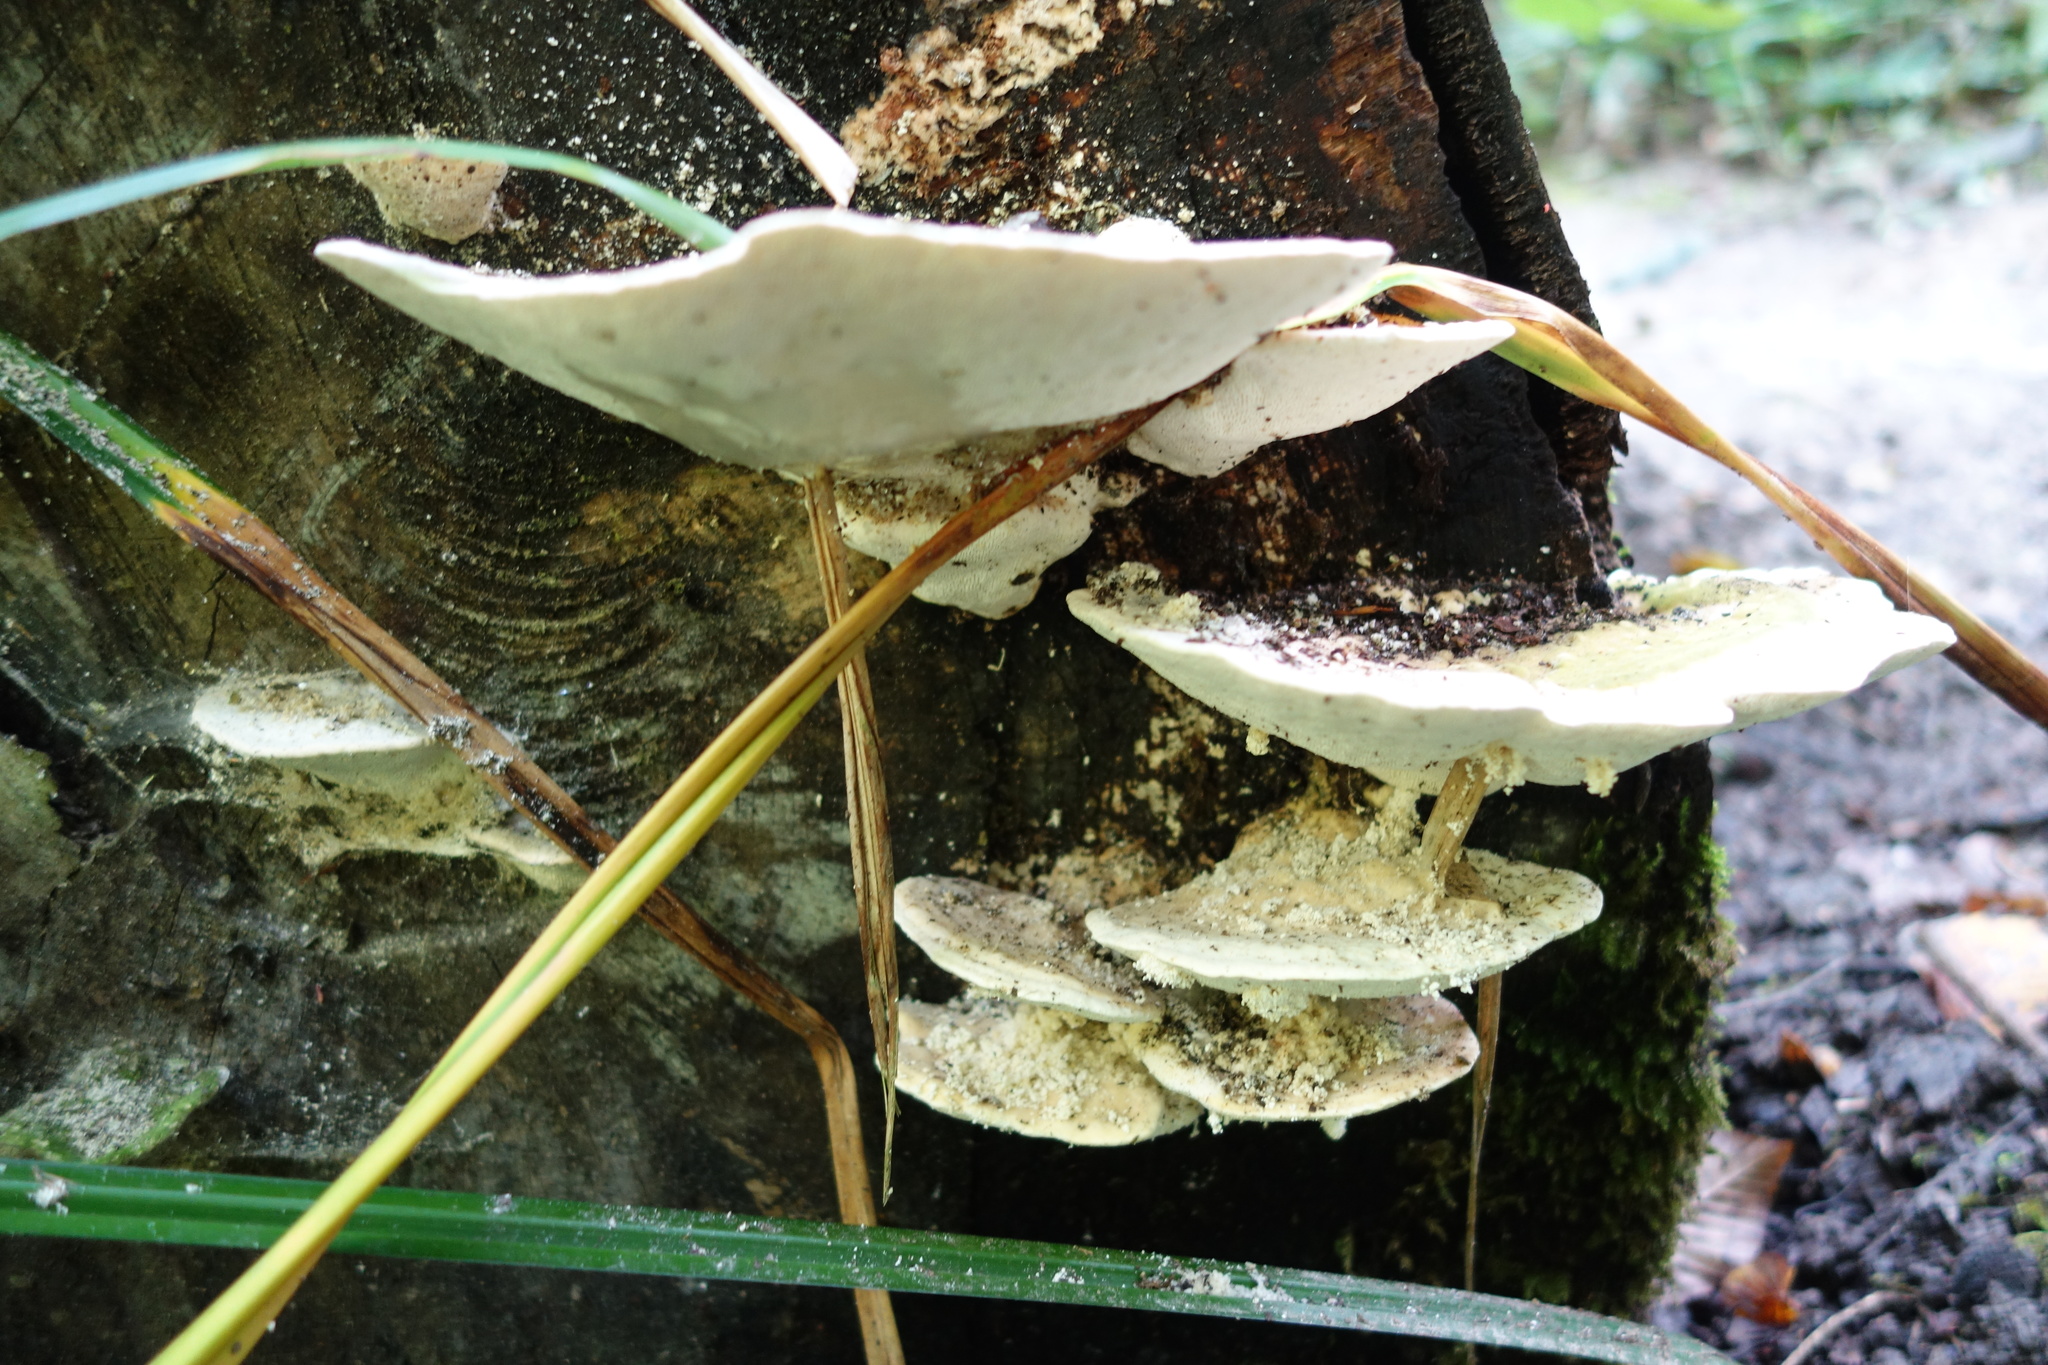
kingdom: Fungi
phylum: Basidiomycota
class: Agaricomycetes
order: Polyporales
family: Polyporaceae
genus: Trametes
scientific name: Trametes gibbosa
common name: Lumpy bracket
